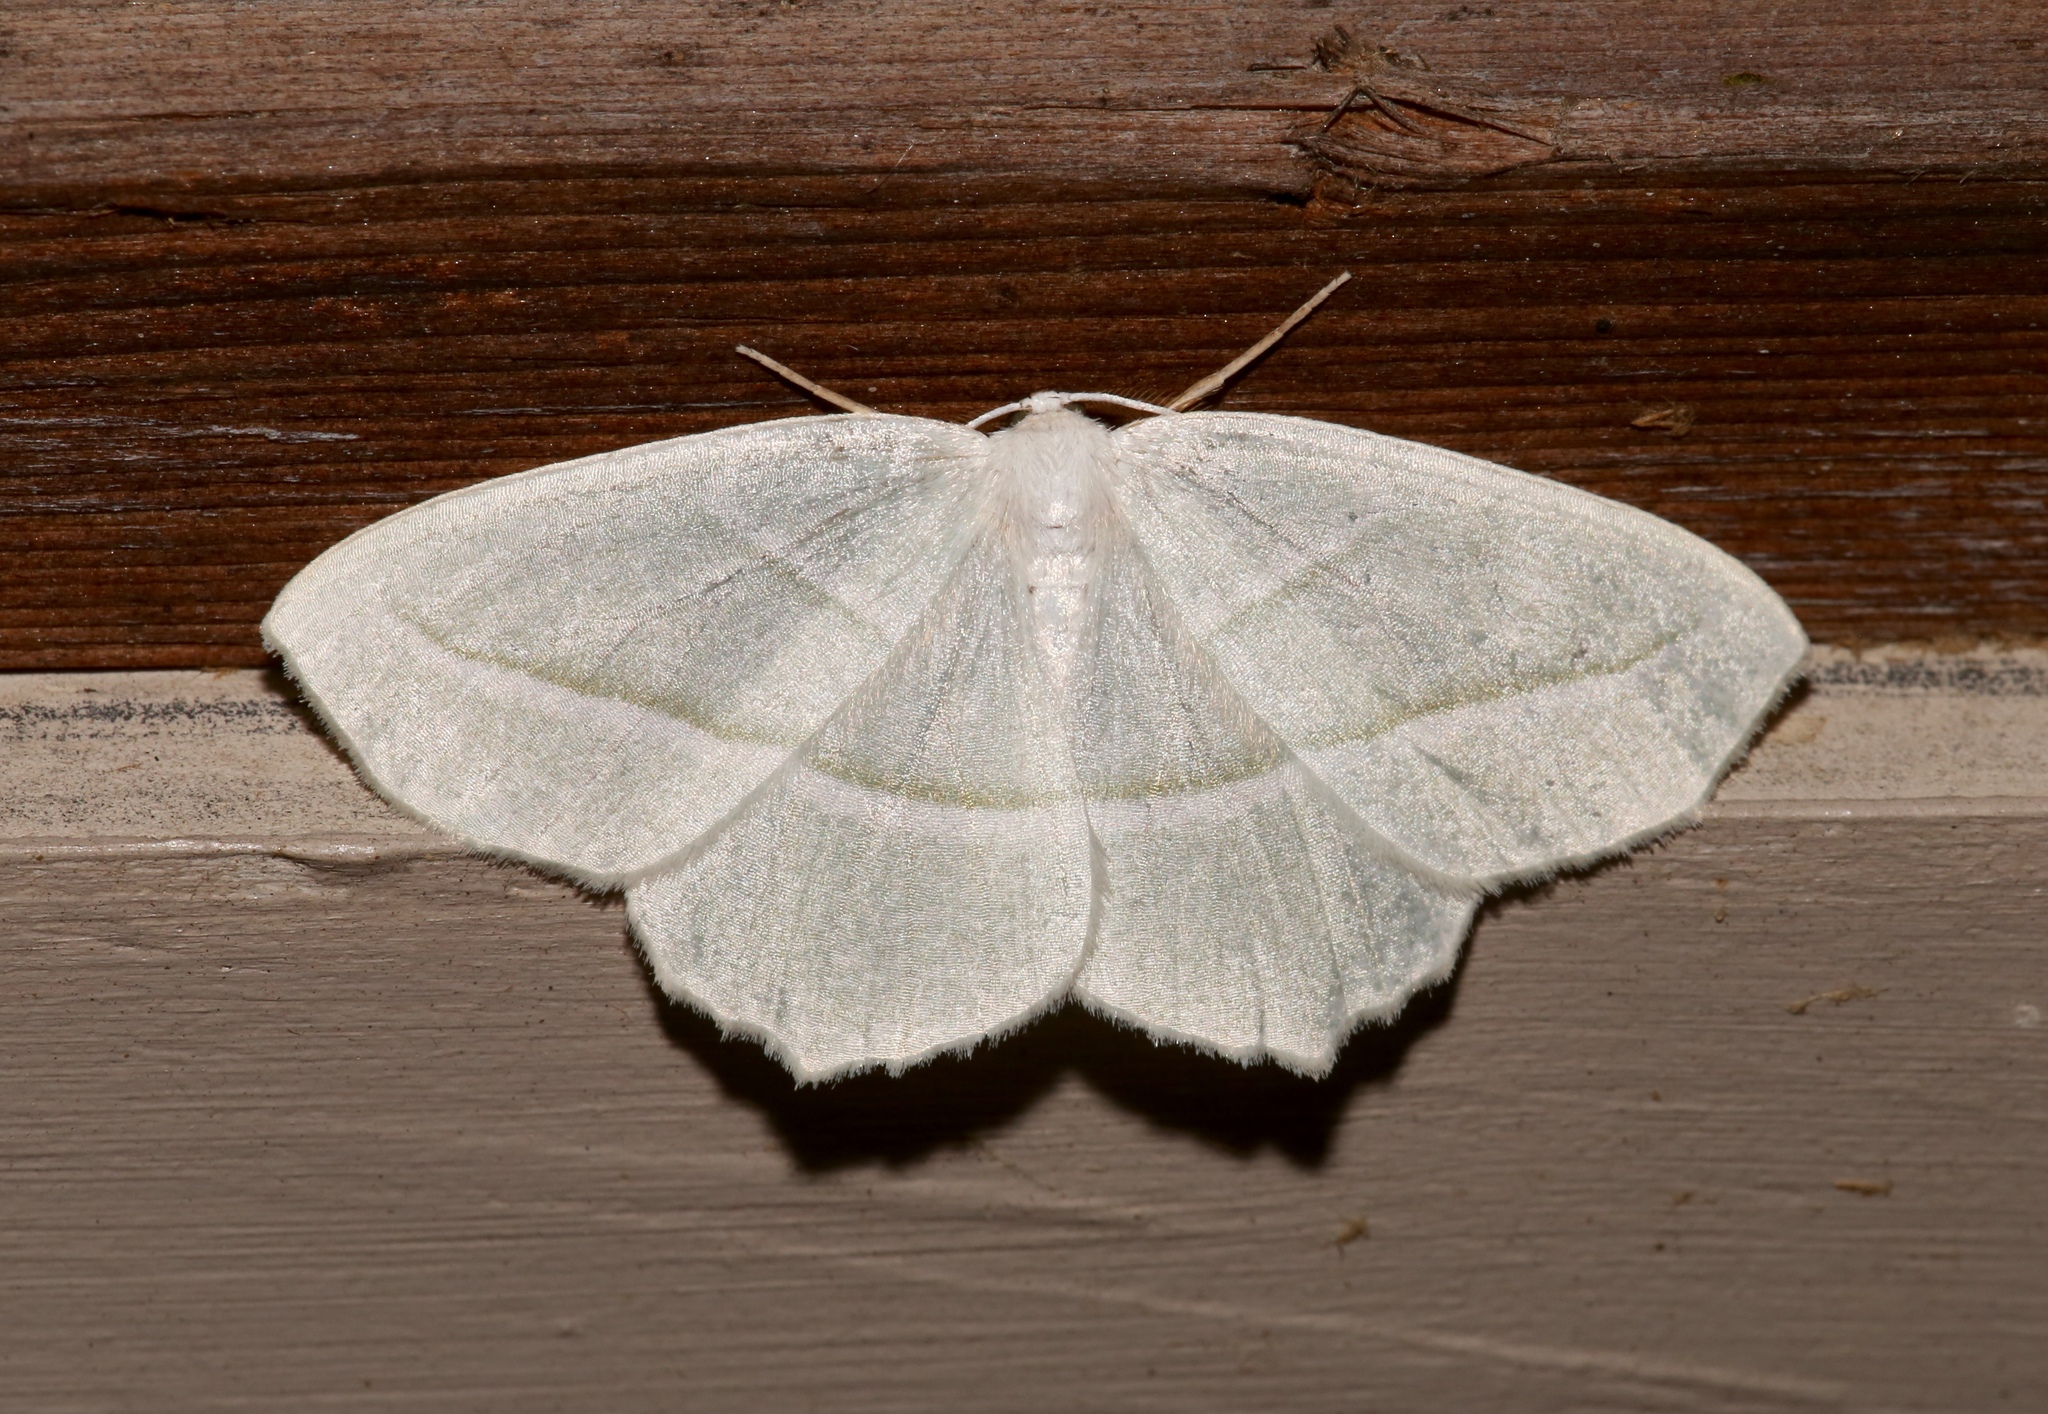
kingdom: Animalia
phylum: Arthropoda
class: Insecta
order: Lepidoptera
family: Geometridae
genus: Campaea
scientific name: Campaea perlata
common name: Fringed looper
